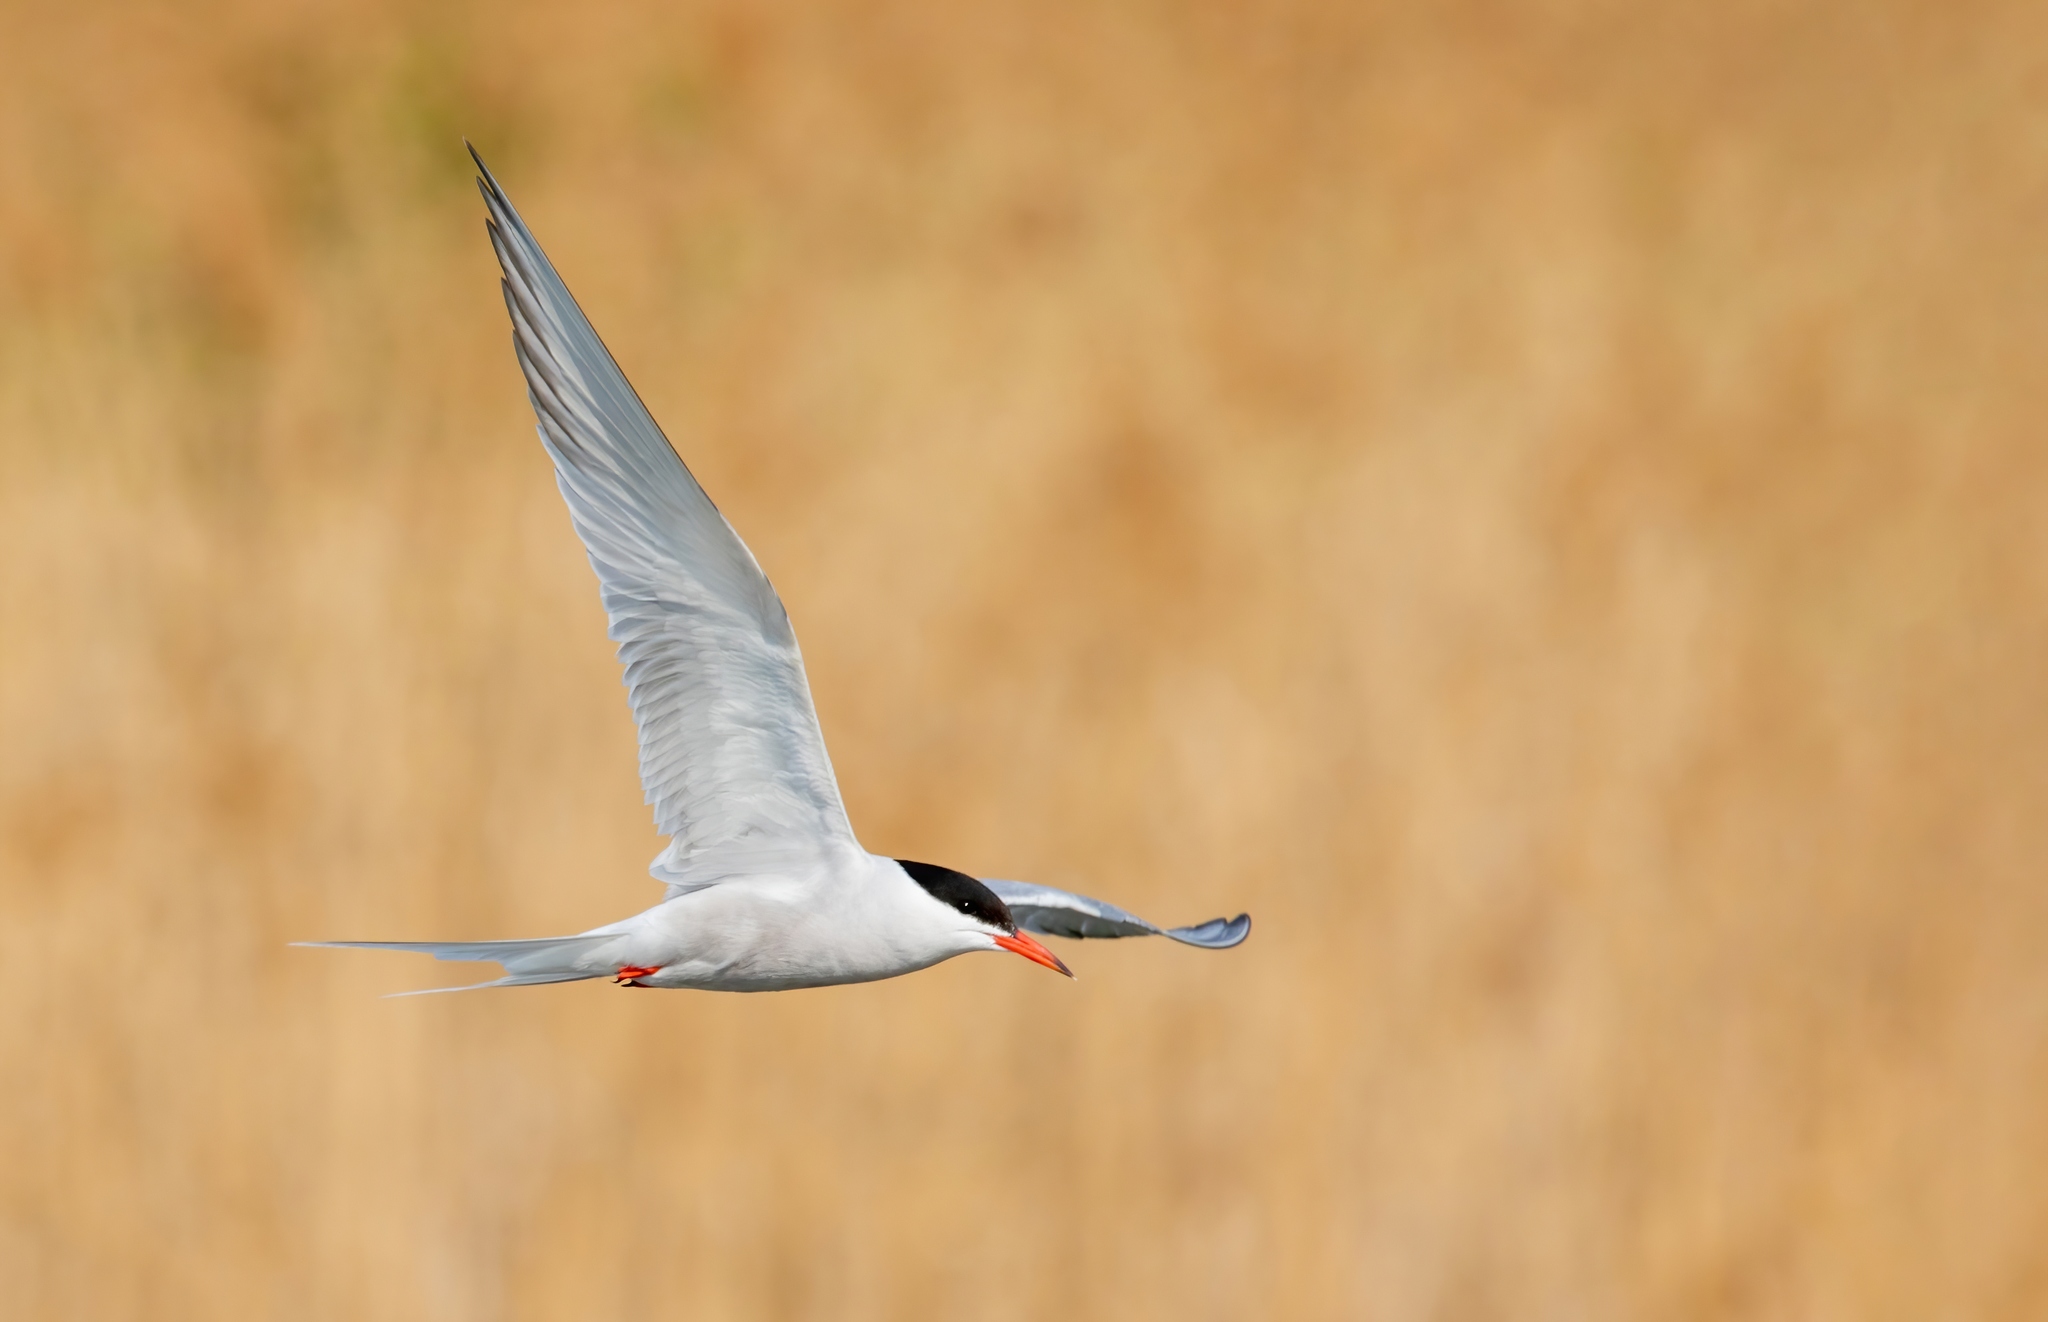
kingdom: Animalia
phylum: Chordata
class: Aves
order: Charadriiformes
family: Laridae
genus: Sterna
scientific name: Sterna hirundo
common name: Common tern
